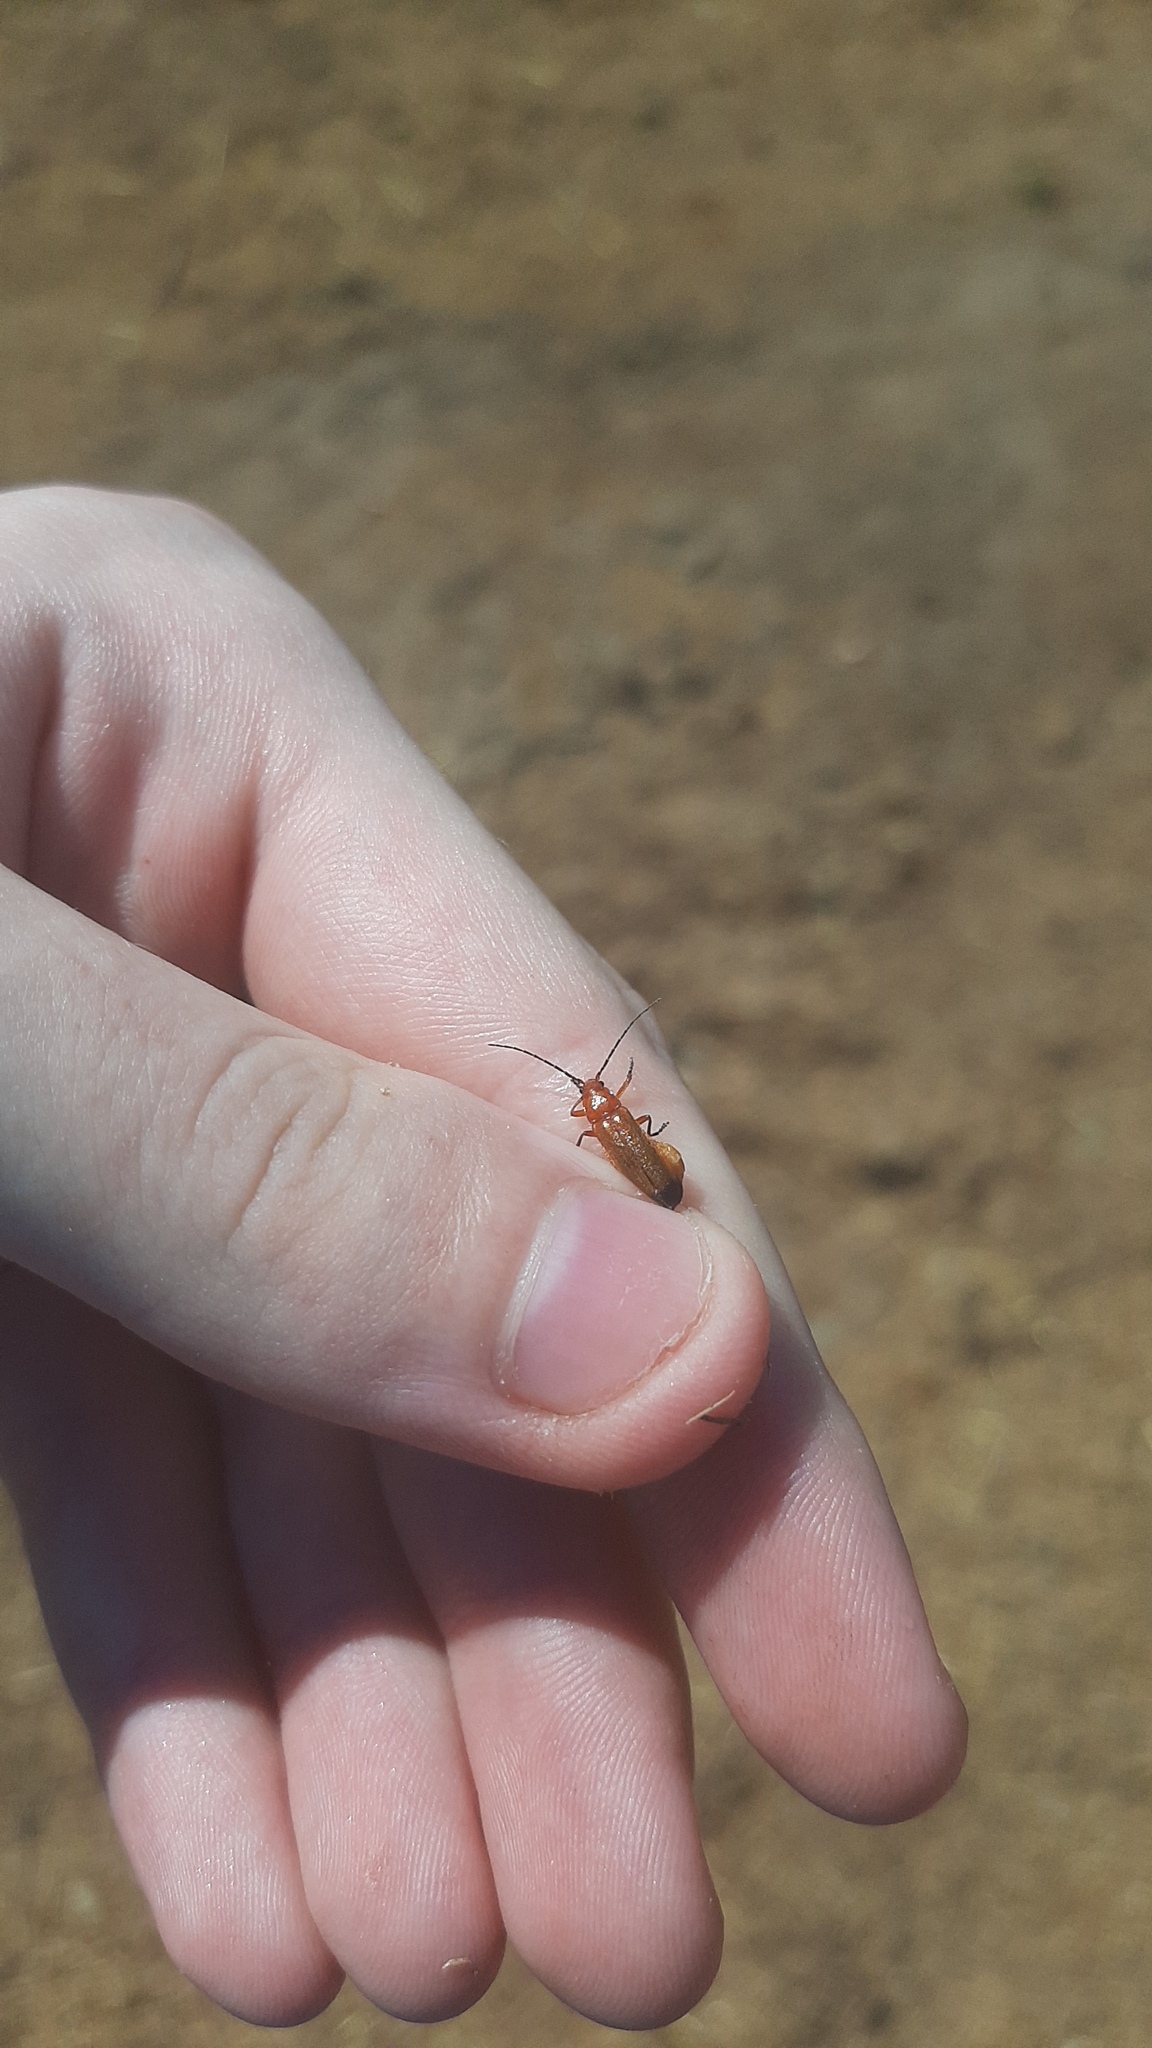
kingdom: Animalia
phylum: Arthropoda
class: Insecta
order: Coleoptera
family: Cantharidae
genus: Rhagonycha
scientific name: Rhagonycha fulva
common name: Common red soldier beetle
